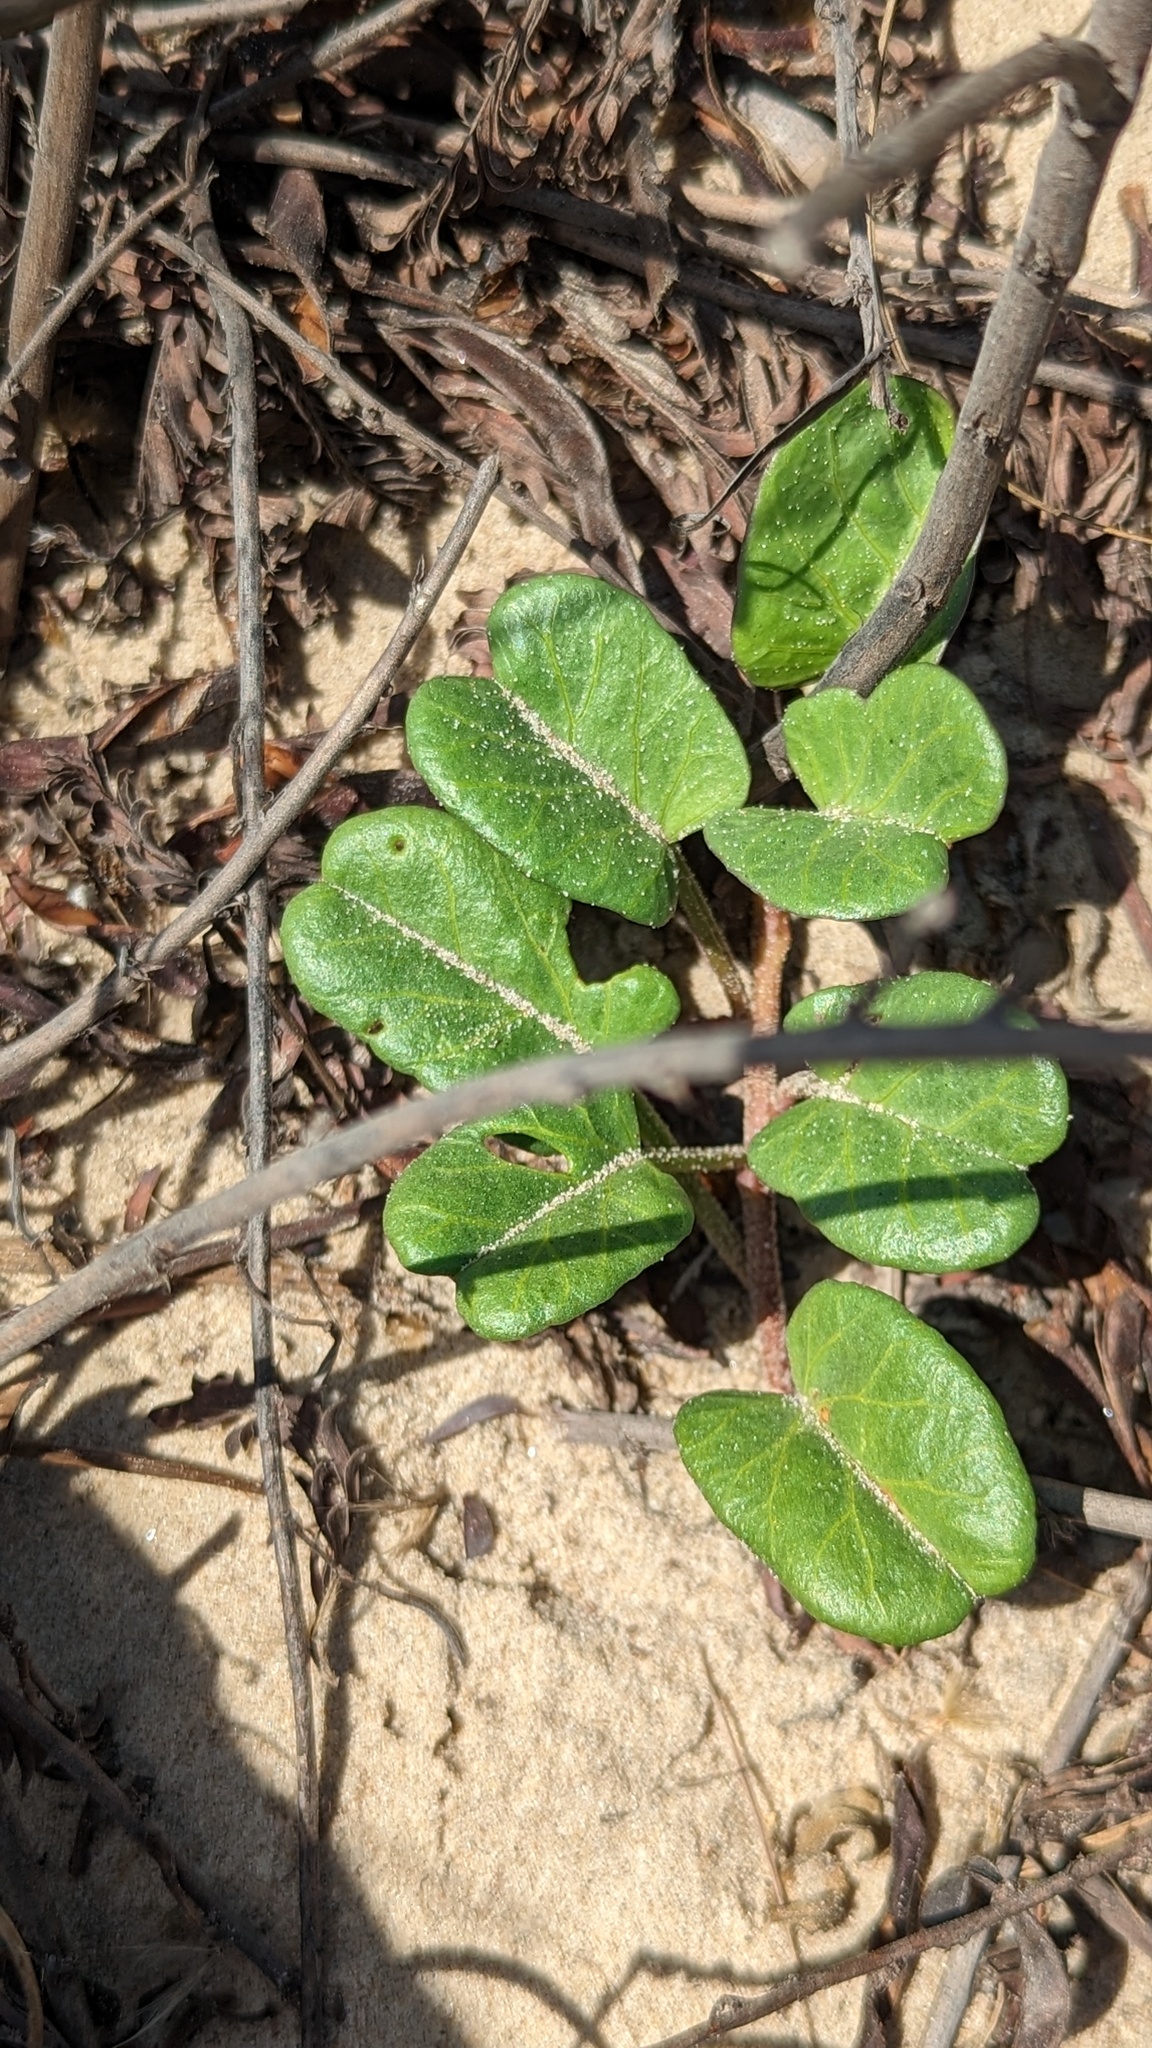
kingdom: Plantae
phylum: Tracheophyta
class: Magnoliopsida
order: Solanales
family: Convolvulaceae
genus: Ipomoea
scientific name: Ipomoea imperati
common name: Fiddle-leaf morning-glory
